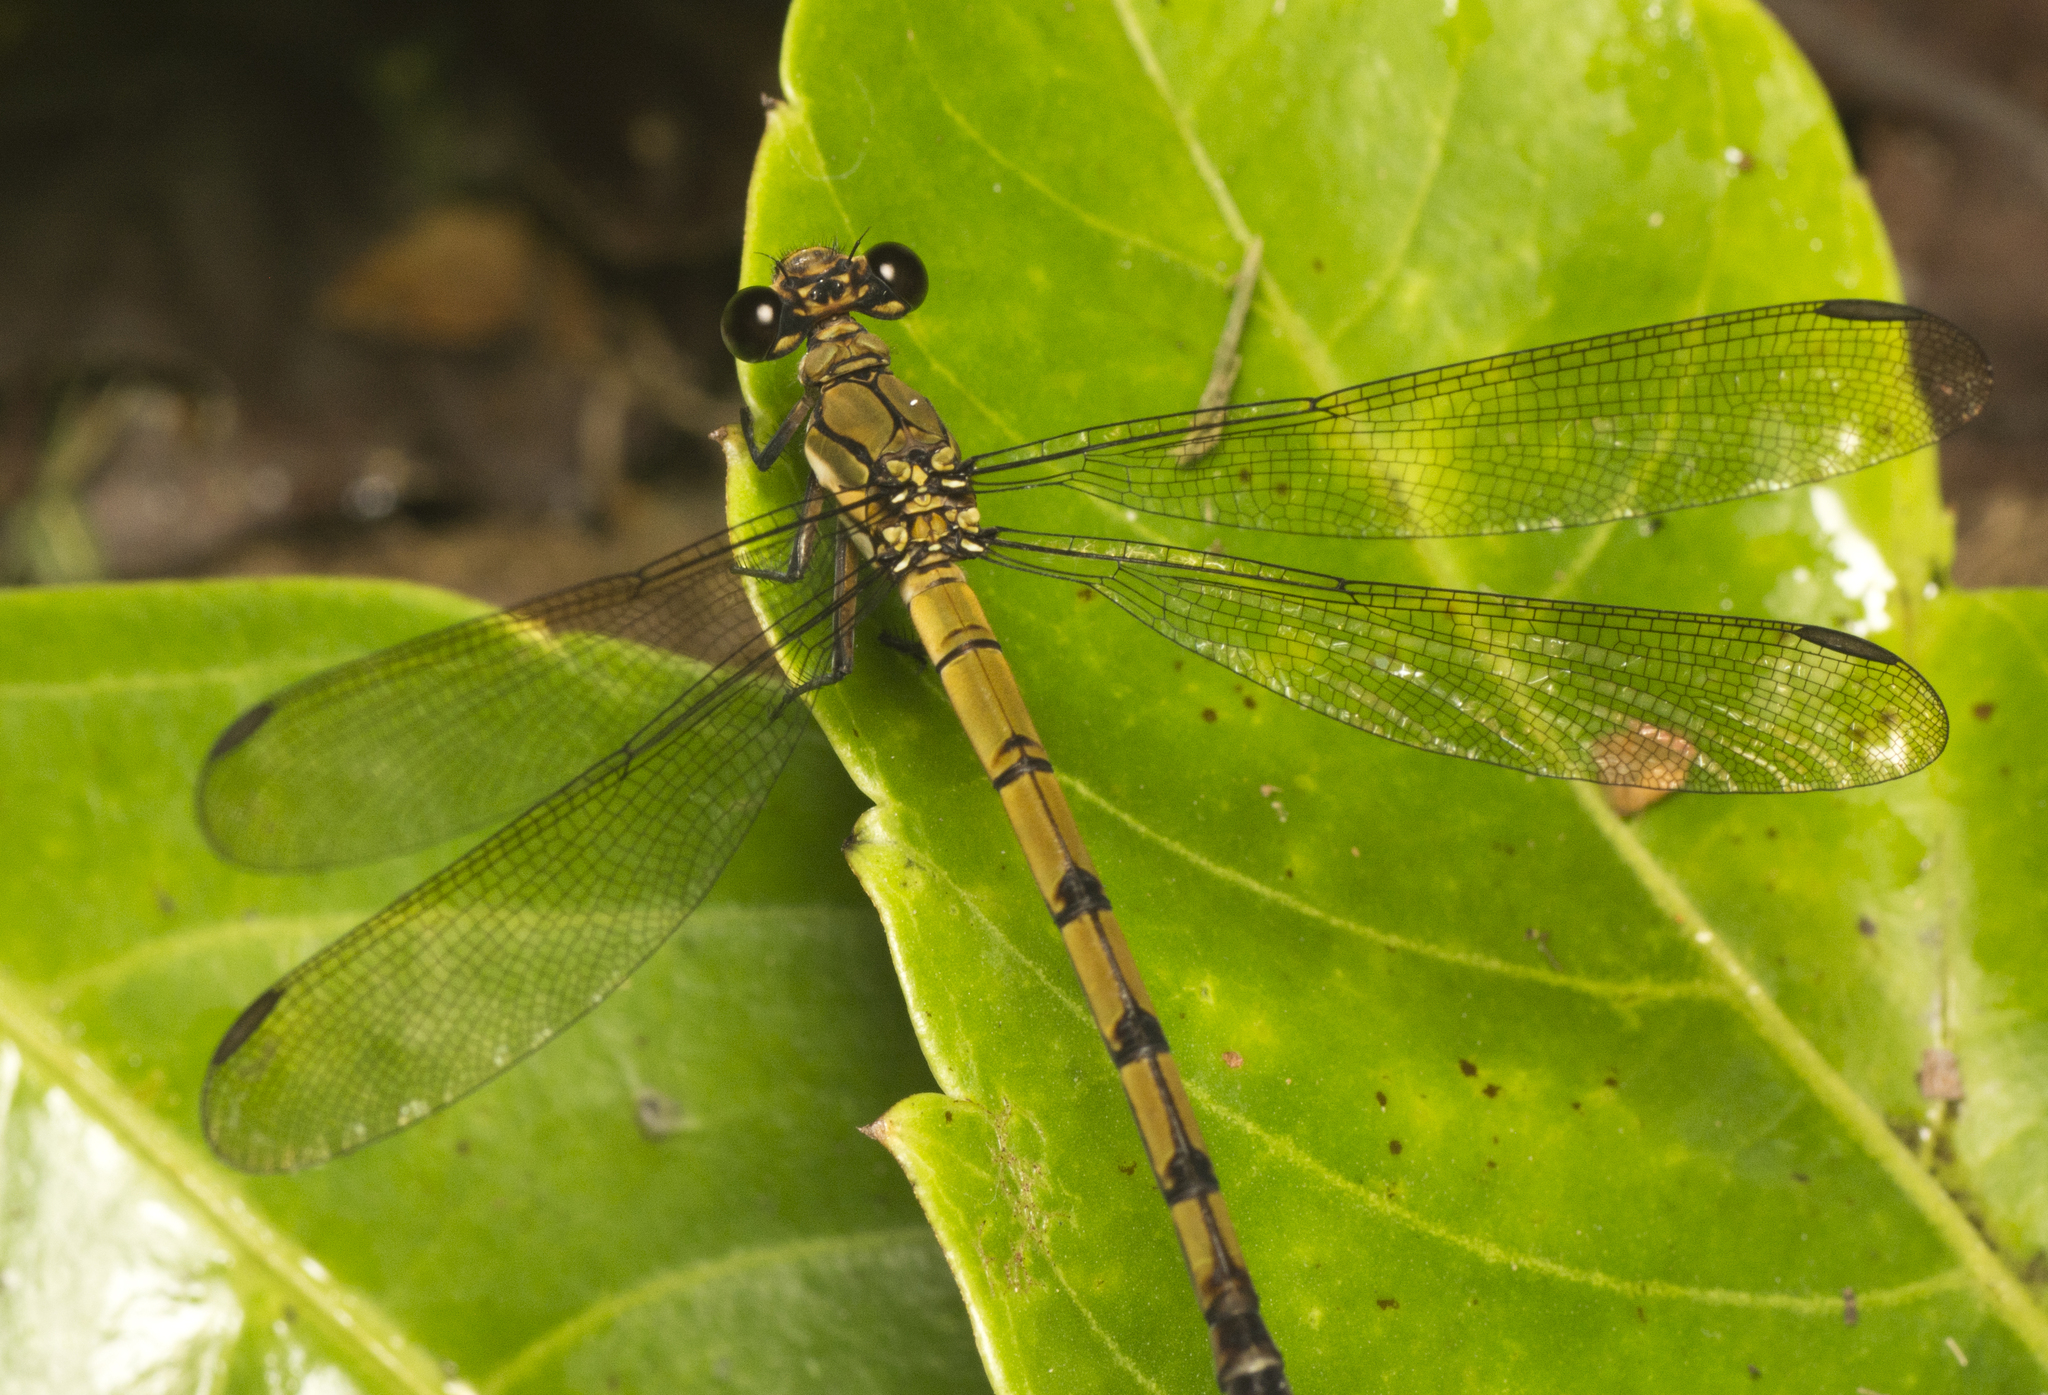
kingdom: Animalia
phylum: Arthropoda
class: Insecta
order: Odonata
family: Lestoideidae
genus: Diphlebia
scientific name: Diphlebia euphoeoides
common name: Tropical rockmaster
